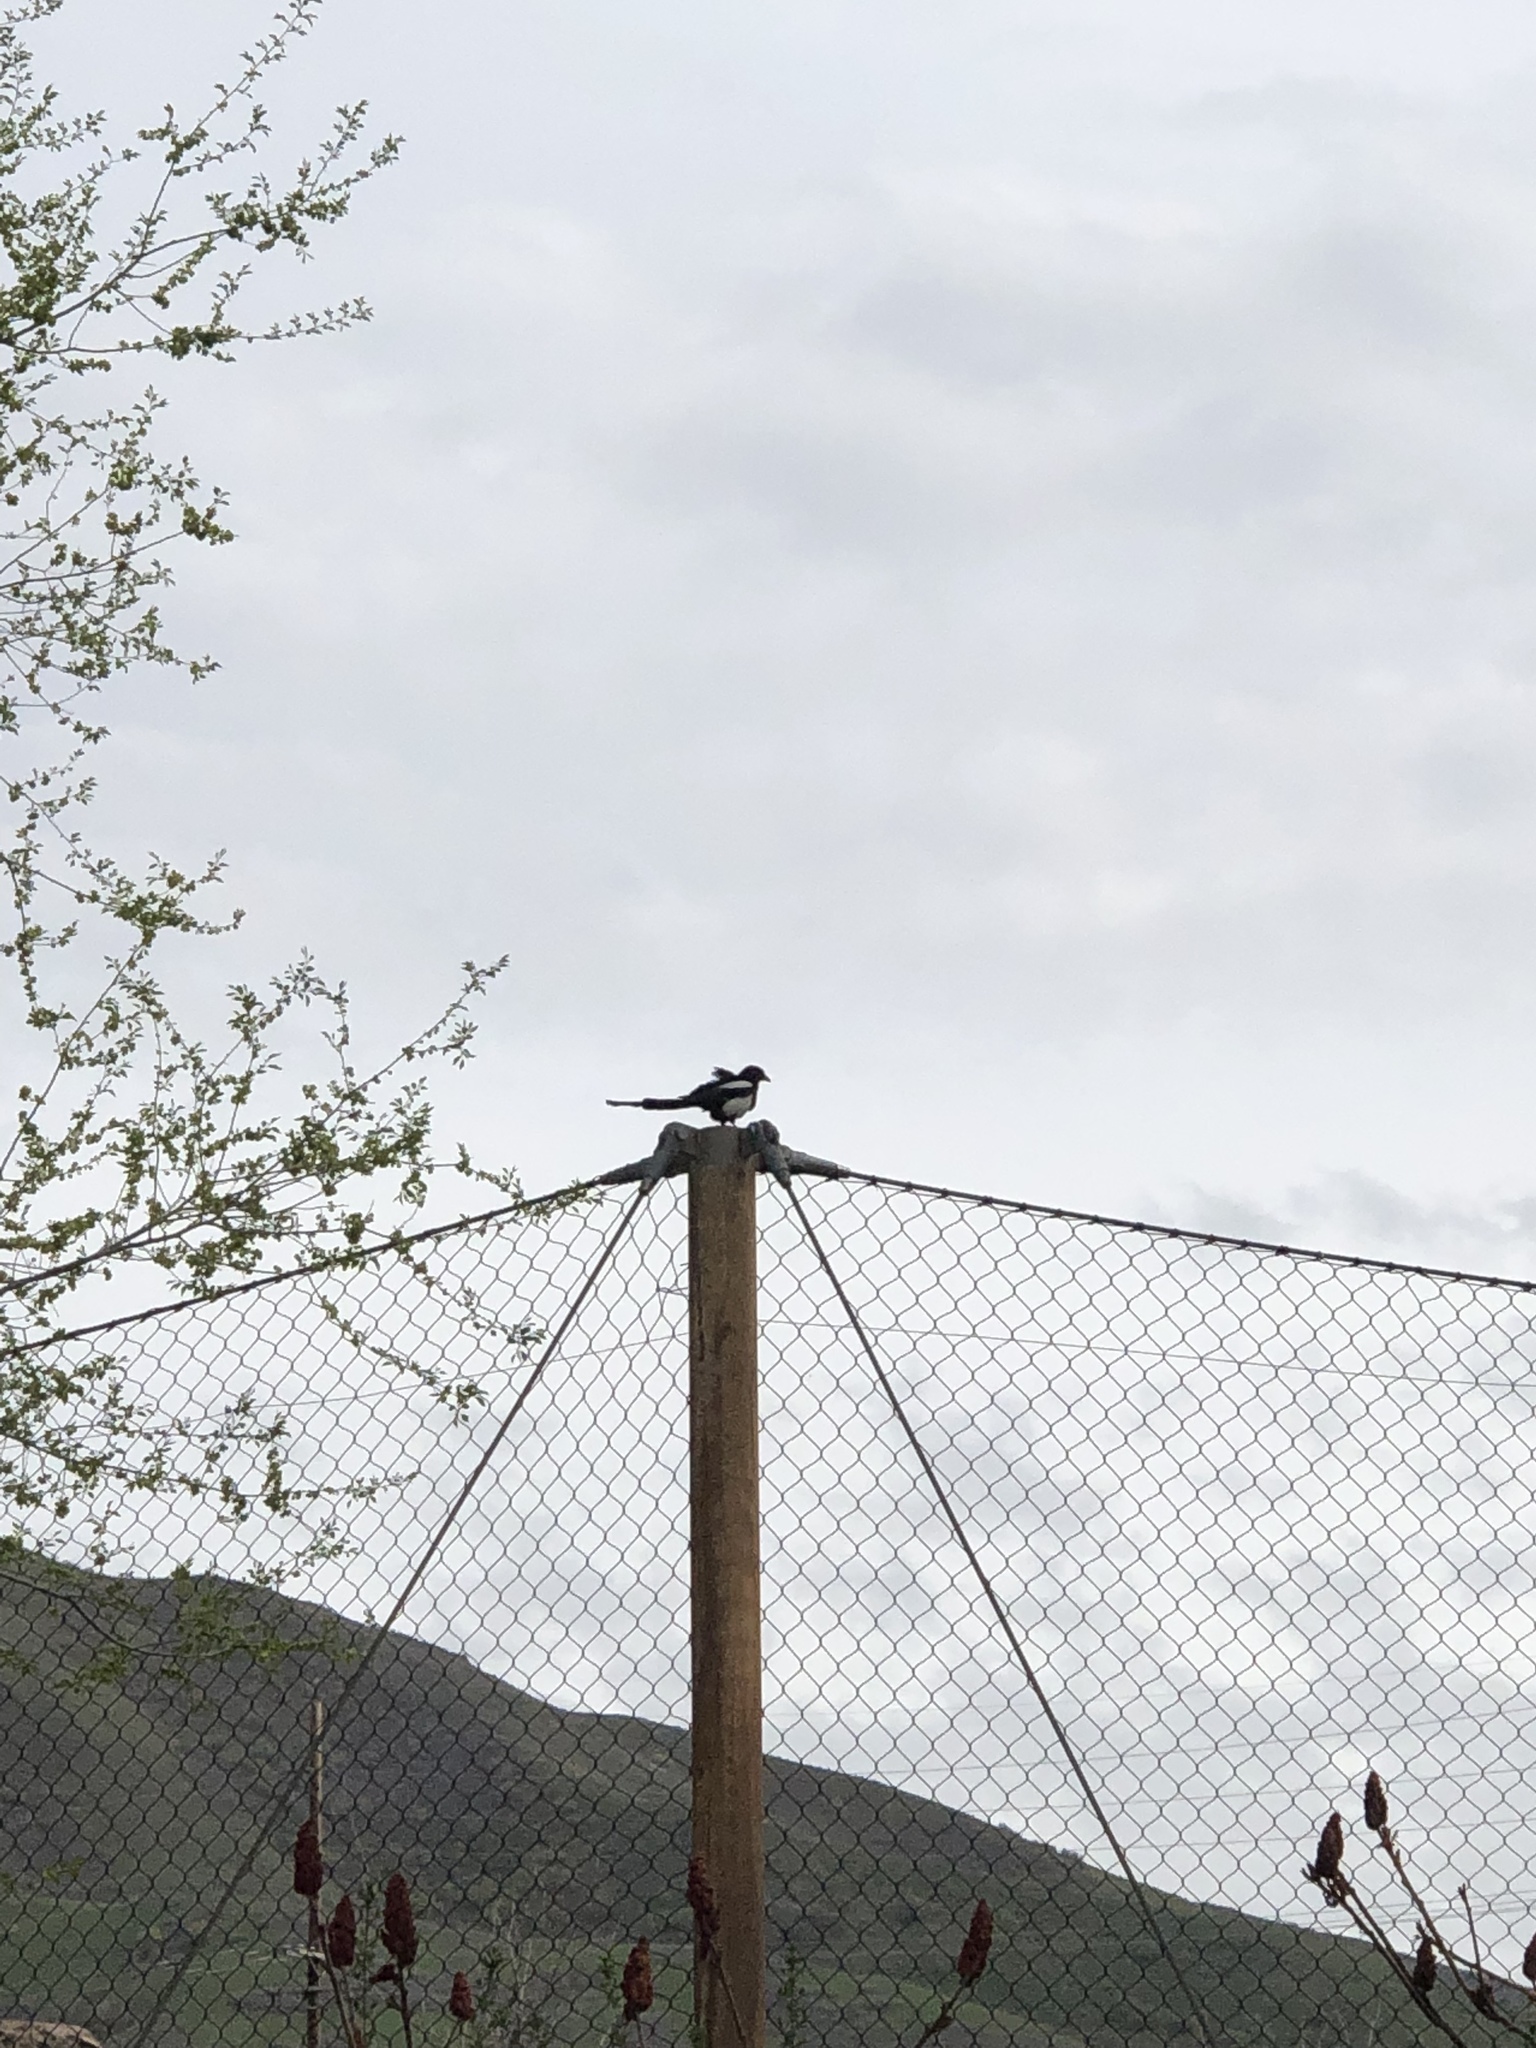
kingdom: Animalia
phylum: Chordata
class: Aves
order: Passeriformes
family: Corvidae
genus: Pica
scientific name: Pica hudsonia
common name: Black-billed magpie
